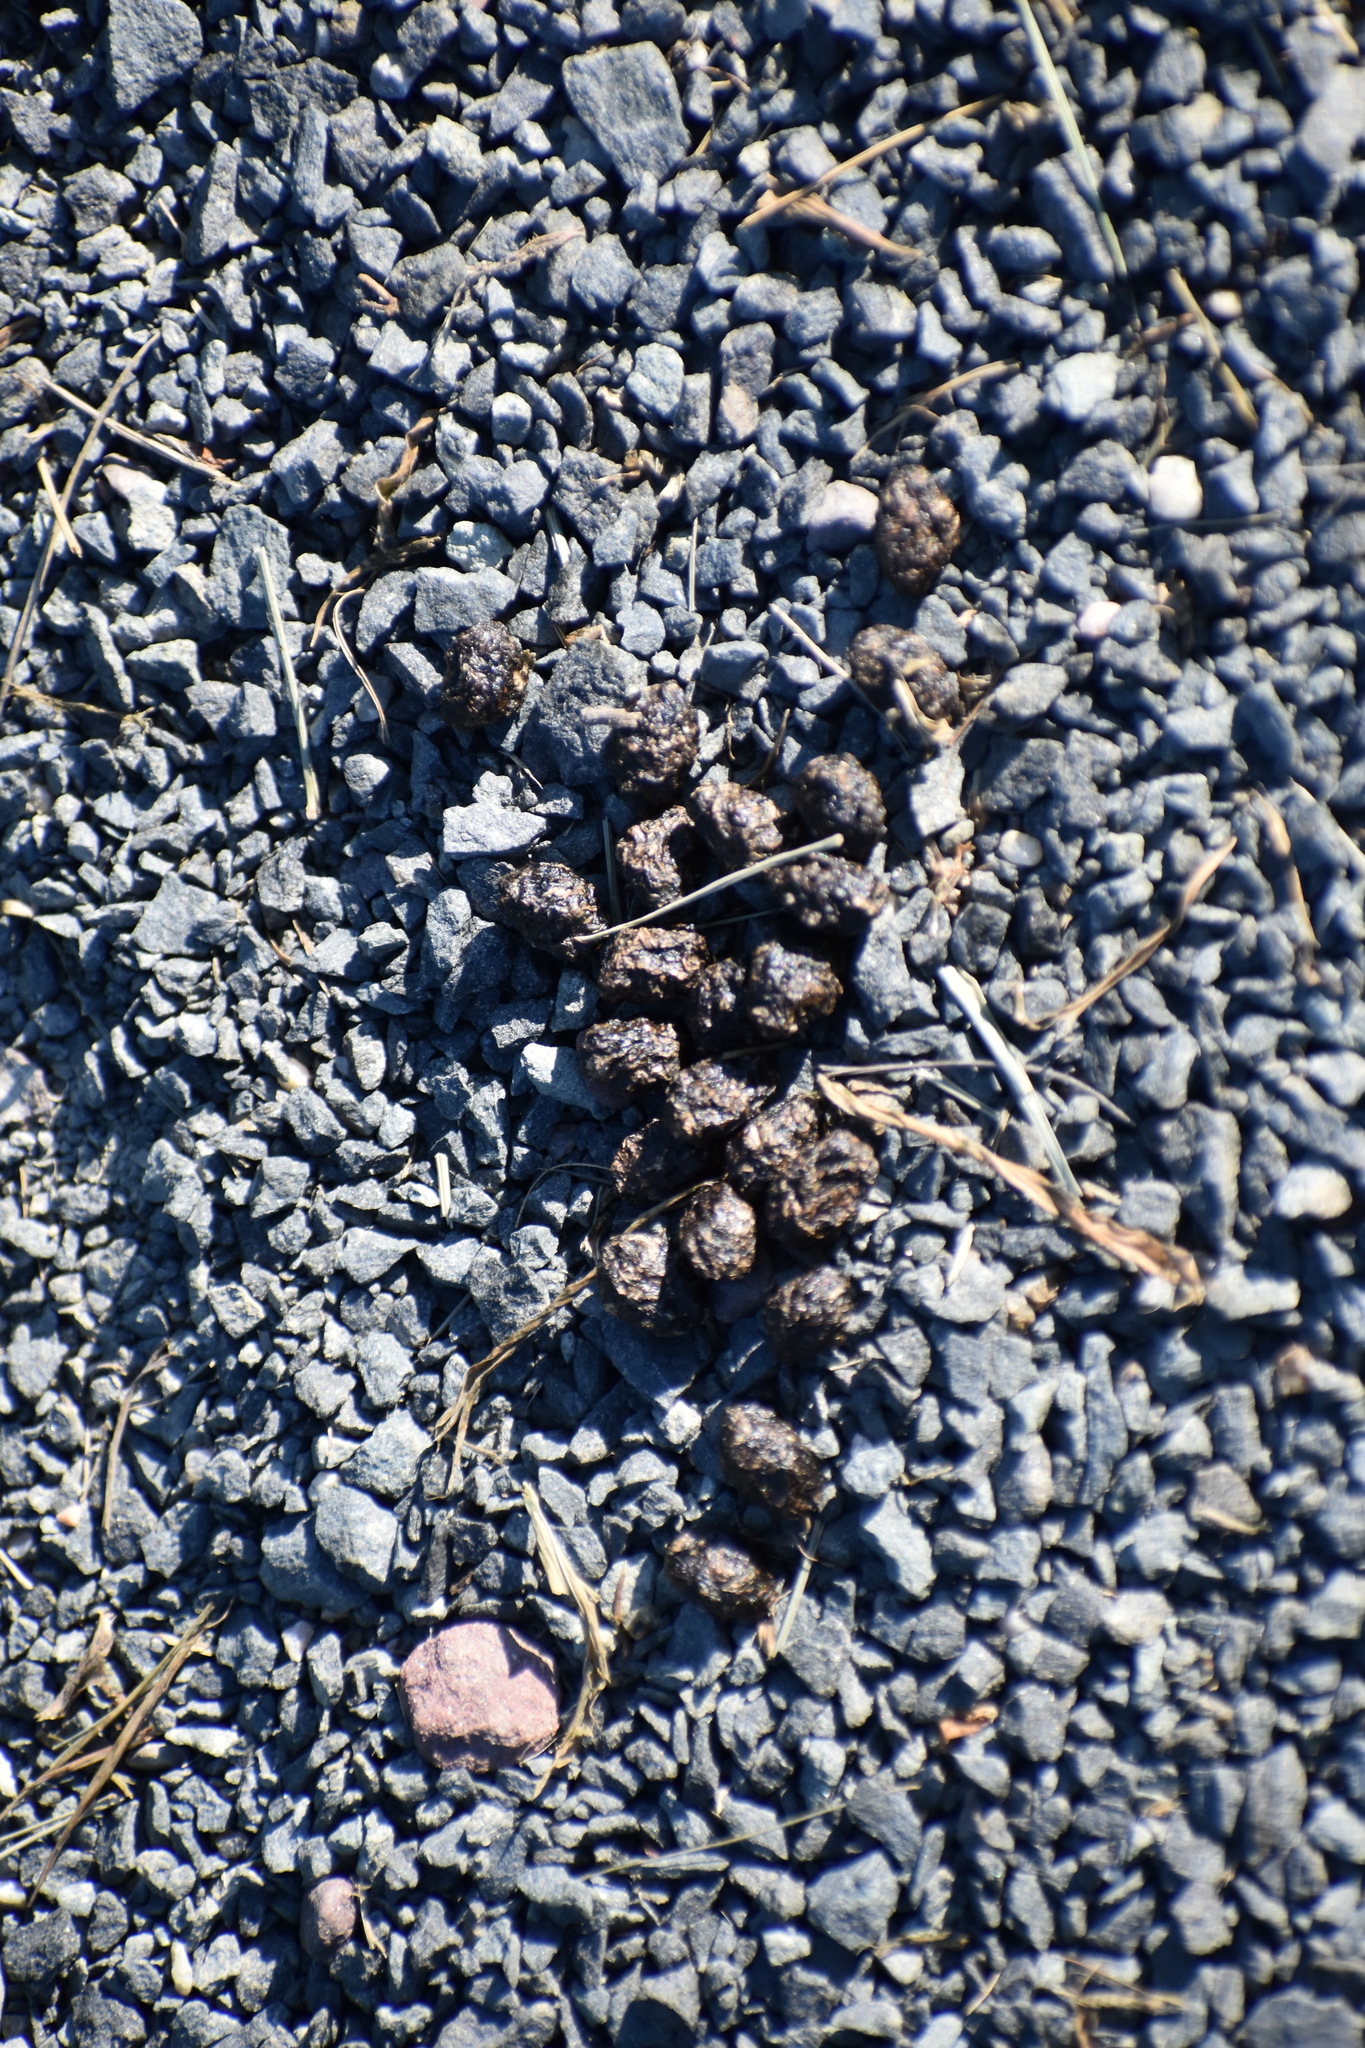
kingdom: Animalia
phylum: Chordata
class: Mammalia
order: Lagomorpha
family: Leporidae
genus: Sylvilagus
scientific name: Sylvilagus floridanus
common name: Eastern cottontail
